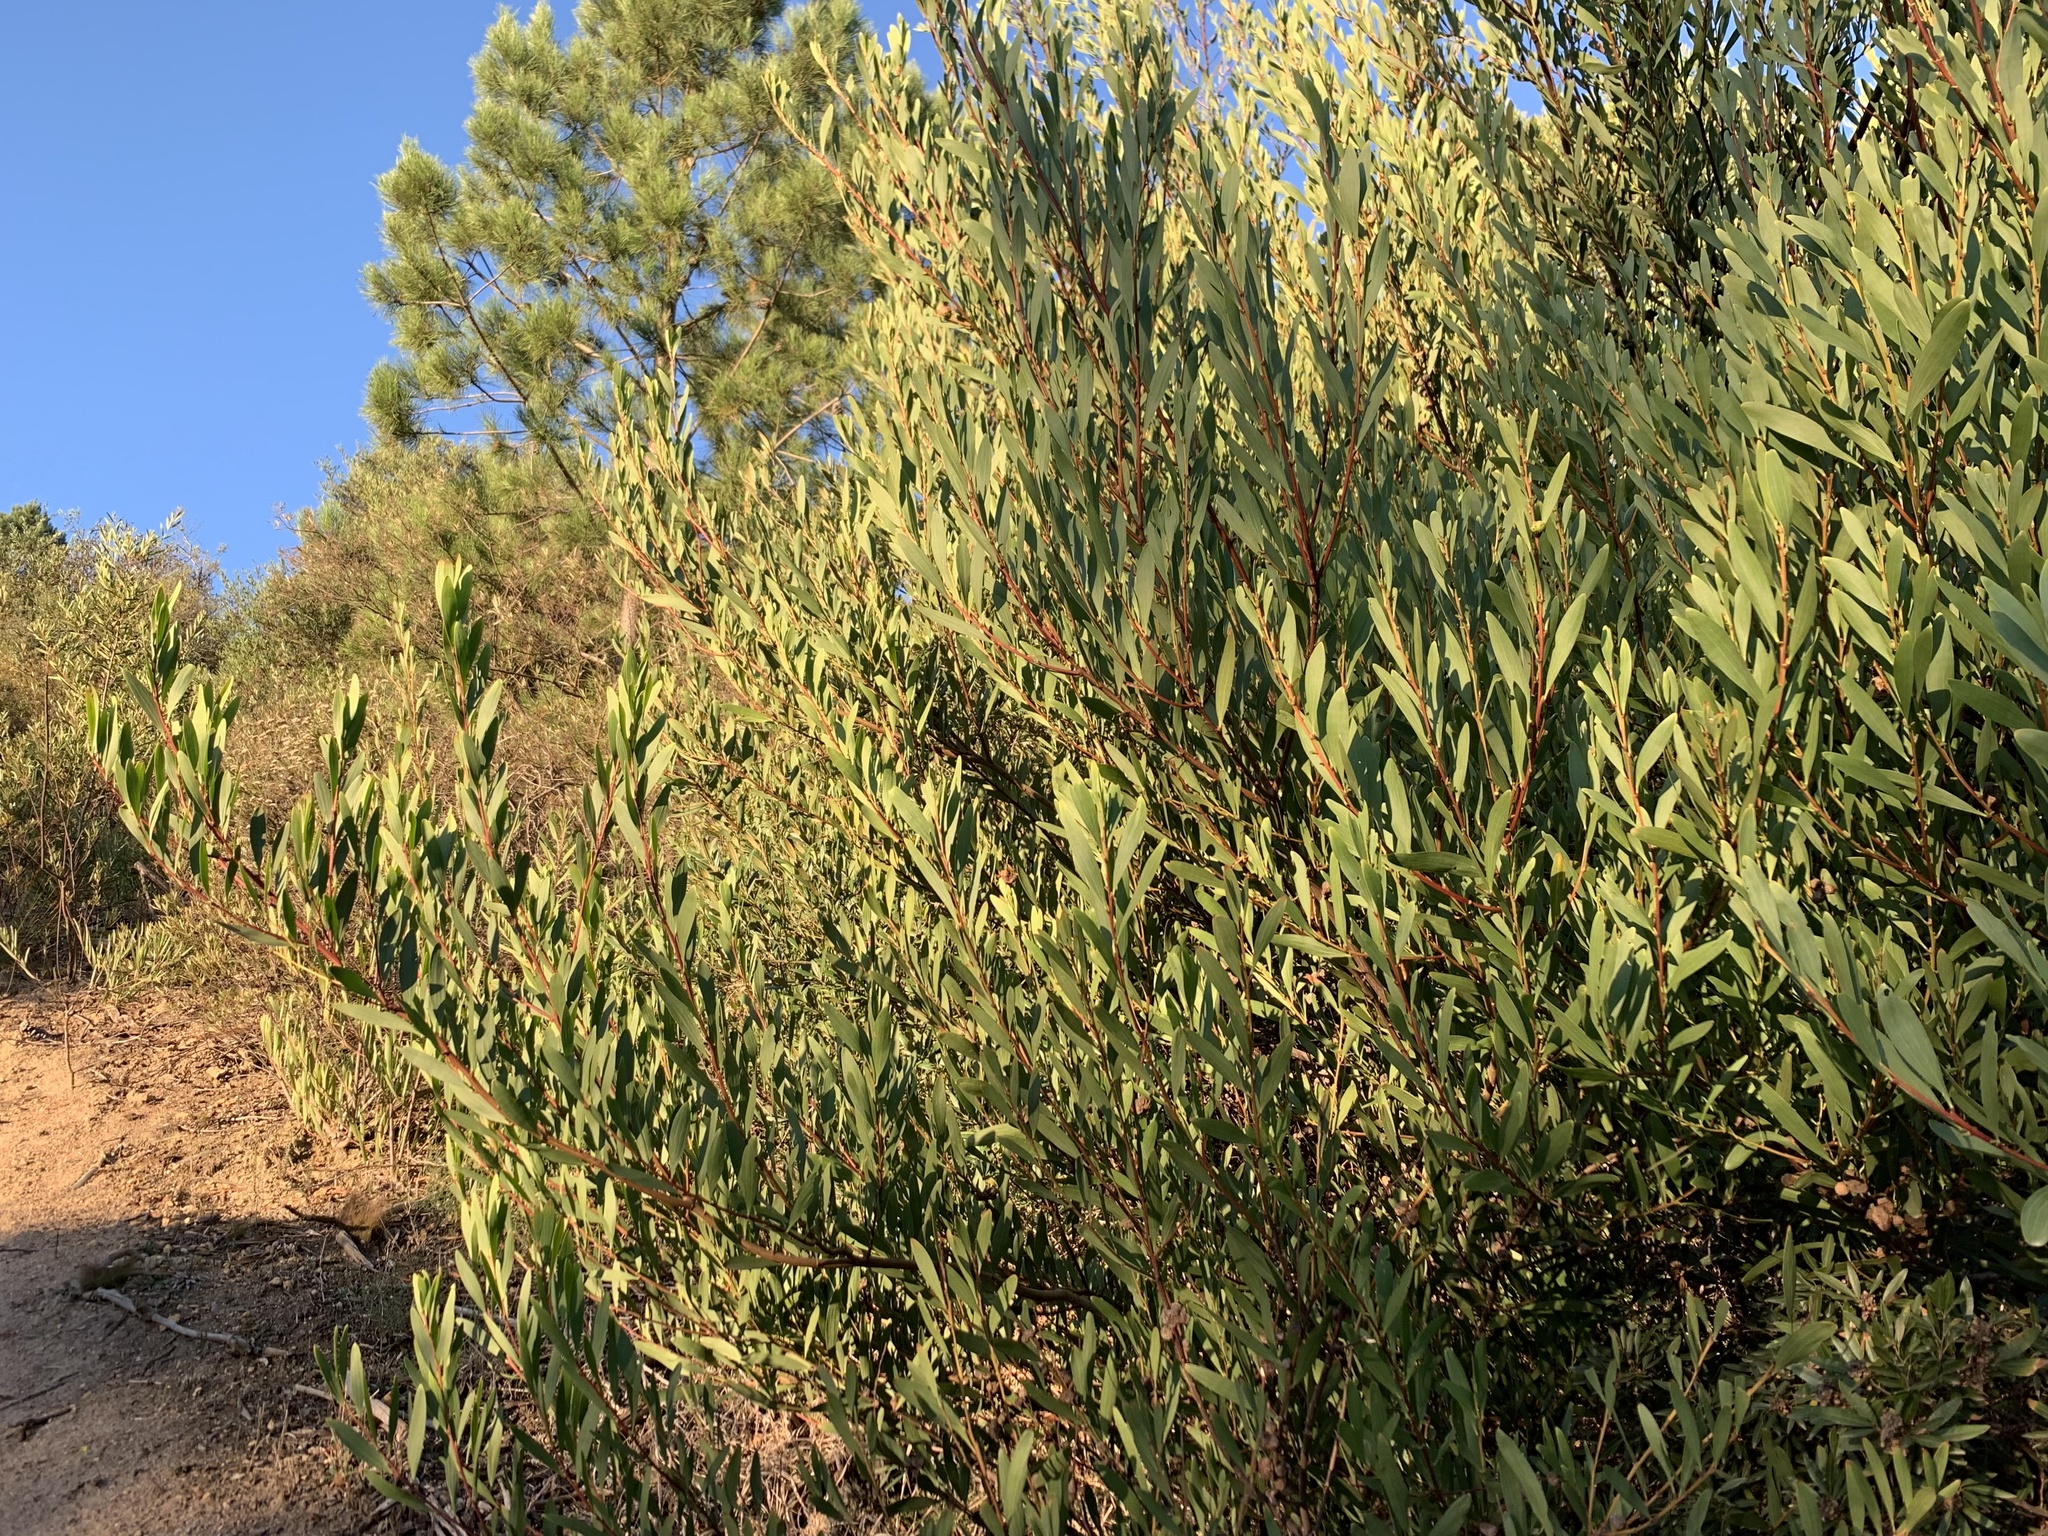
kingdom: Plantae
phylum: Tracheophyta
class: Magnoliopsida
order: Fabales
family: Fabaceae
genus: Acacia
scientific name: Acacia longifolia
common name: Sydney golden wattle
